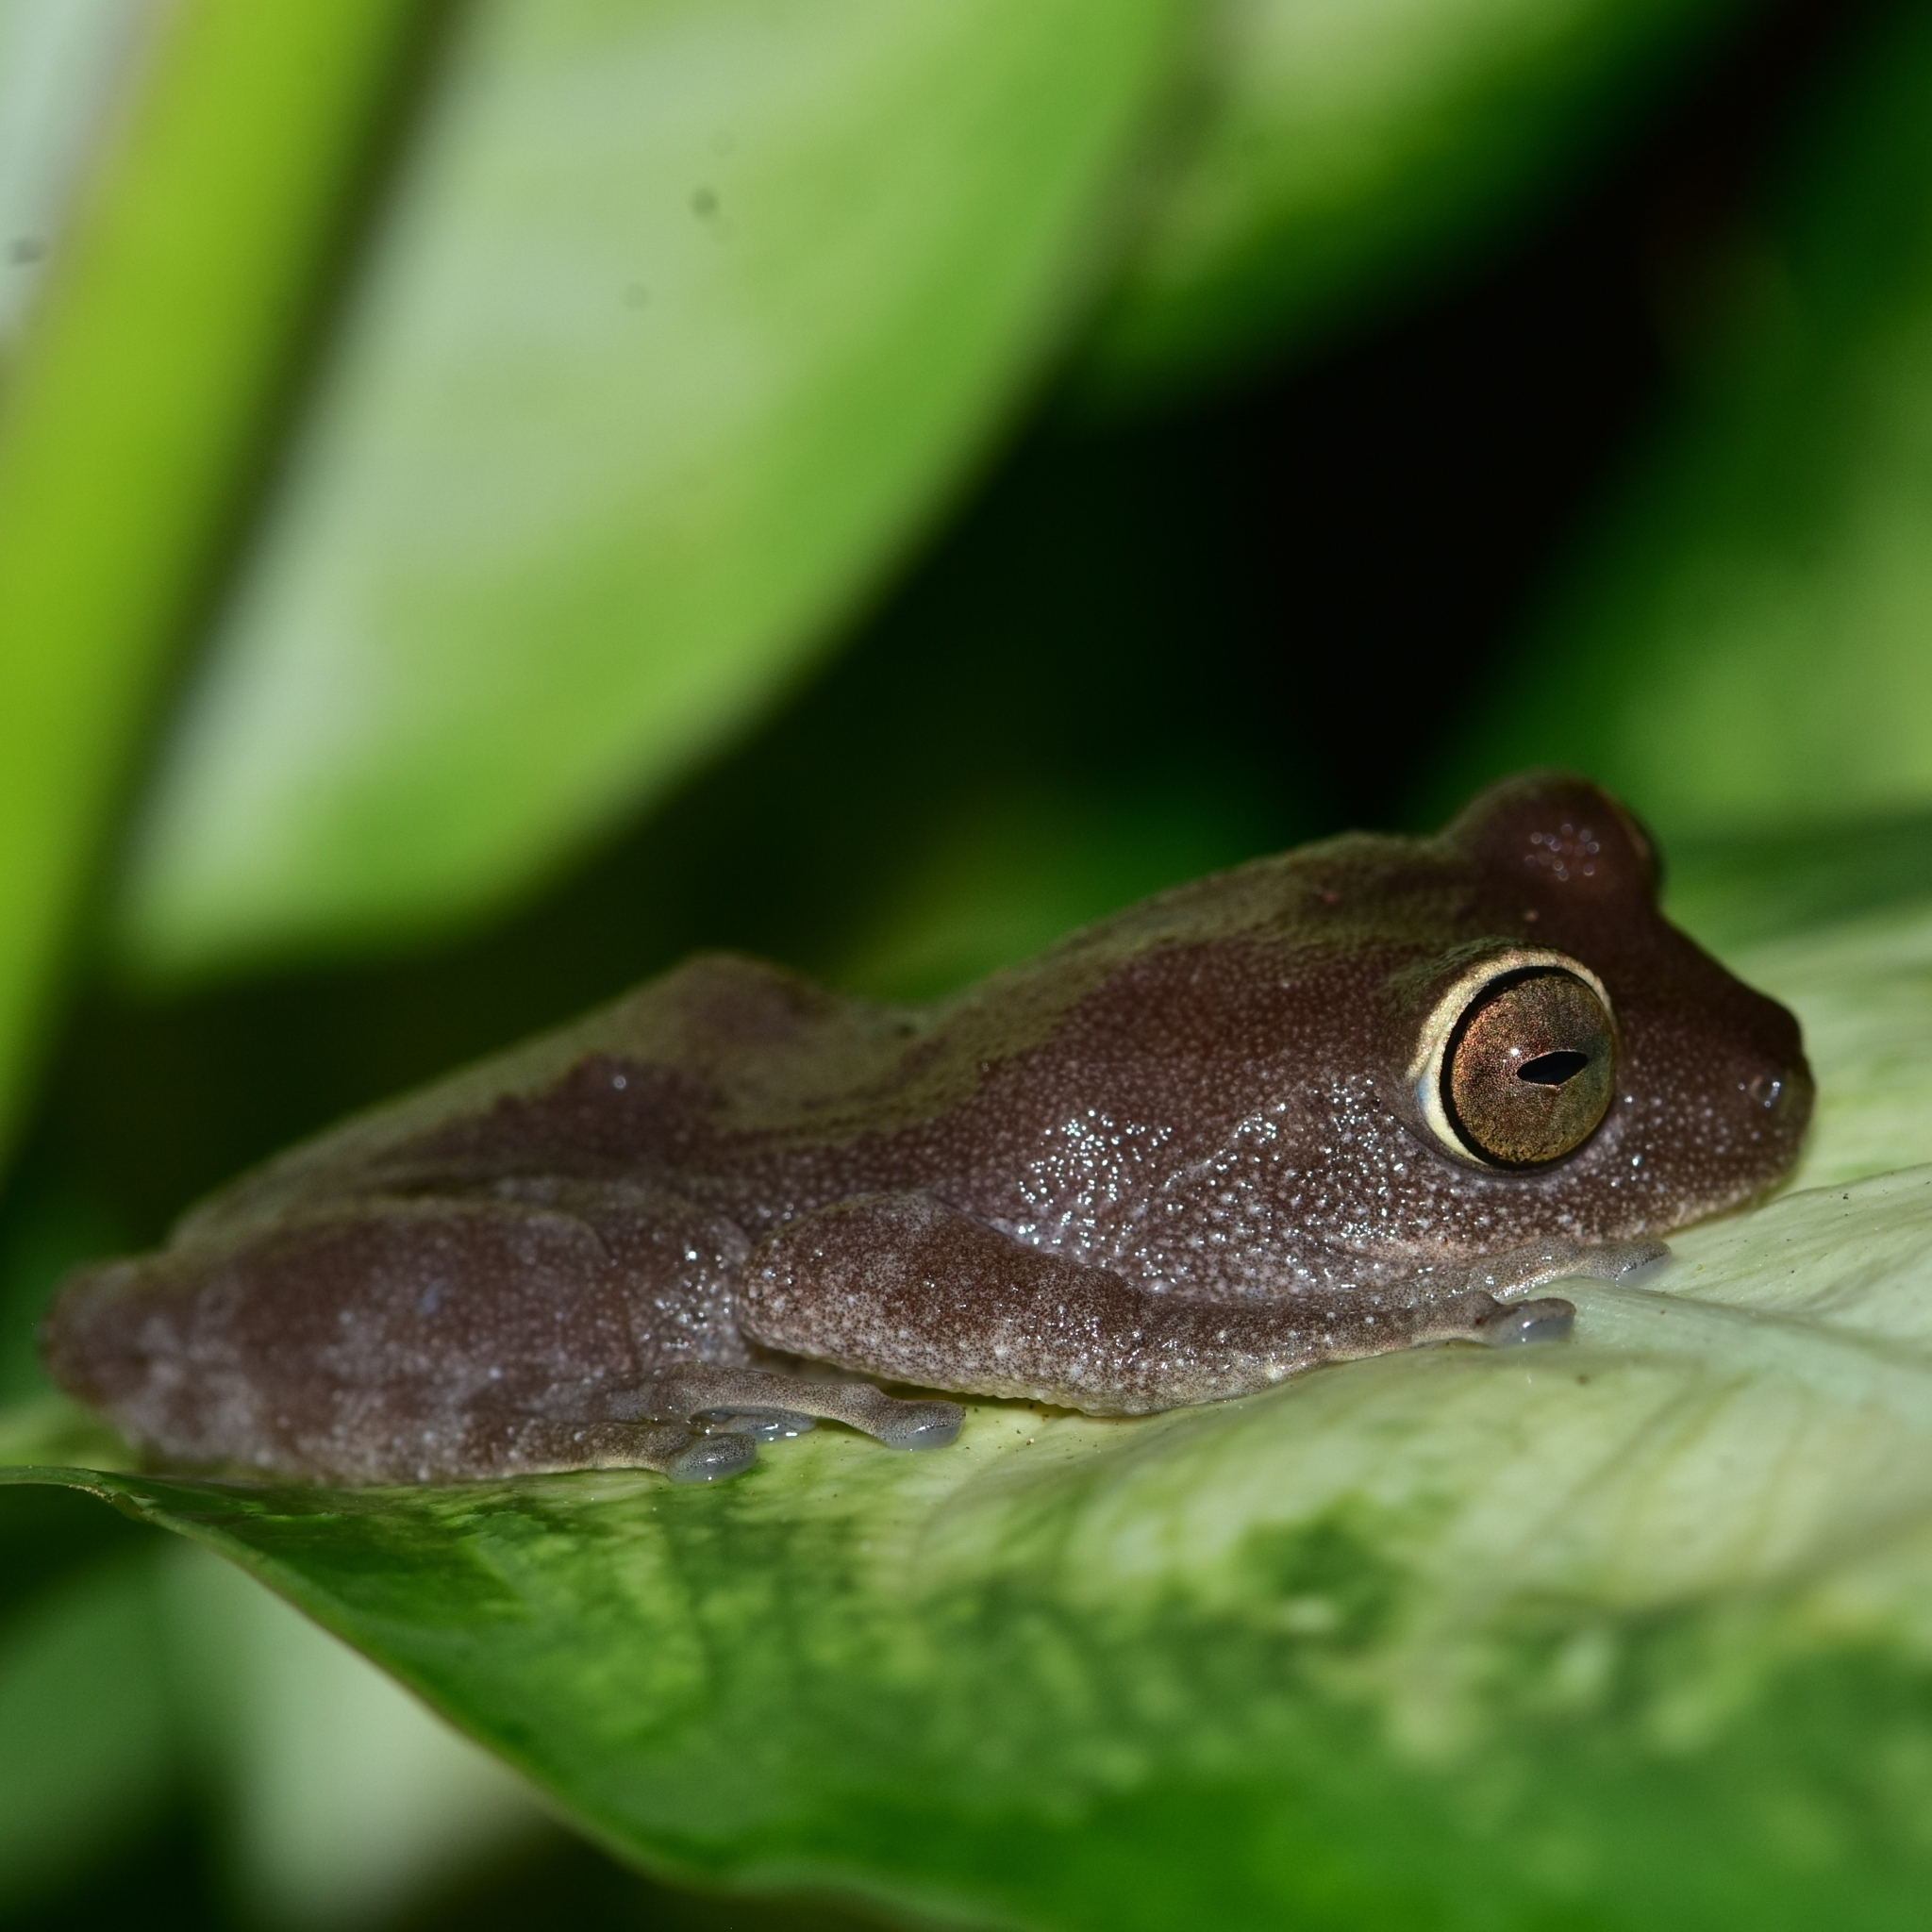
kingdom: Animalia
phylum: Chordata
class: Amphibia
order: Anura
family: Rhacophoridae
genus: Raorchestes
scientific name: Raorchestes ponmudi
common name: Large ponmudi bush frog
